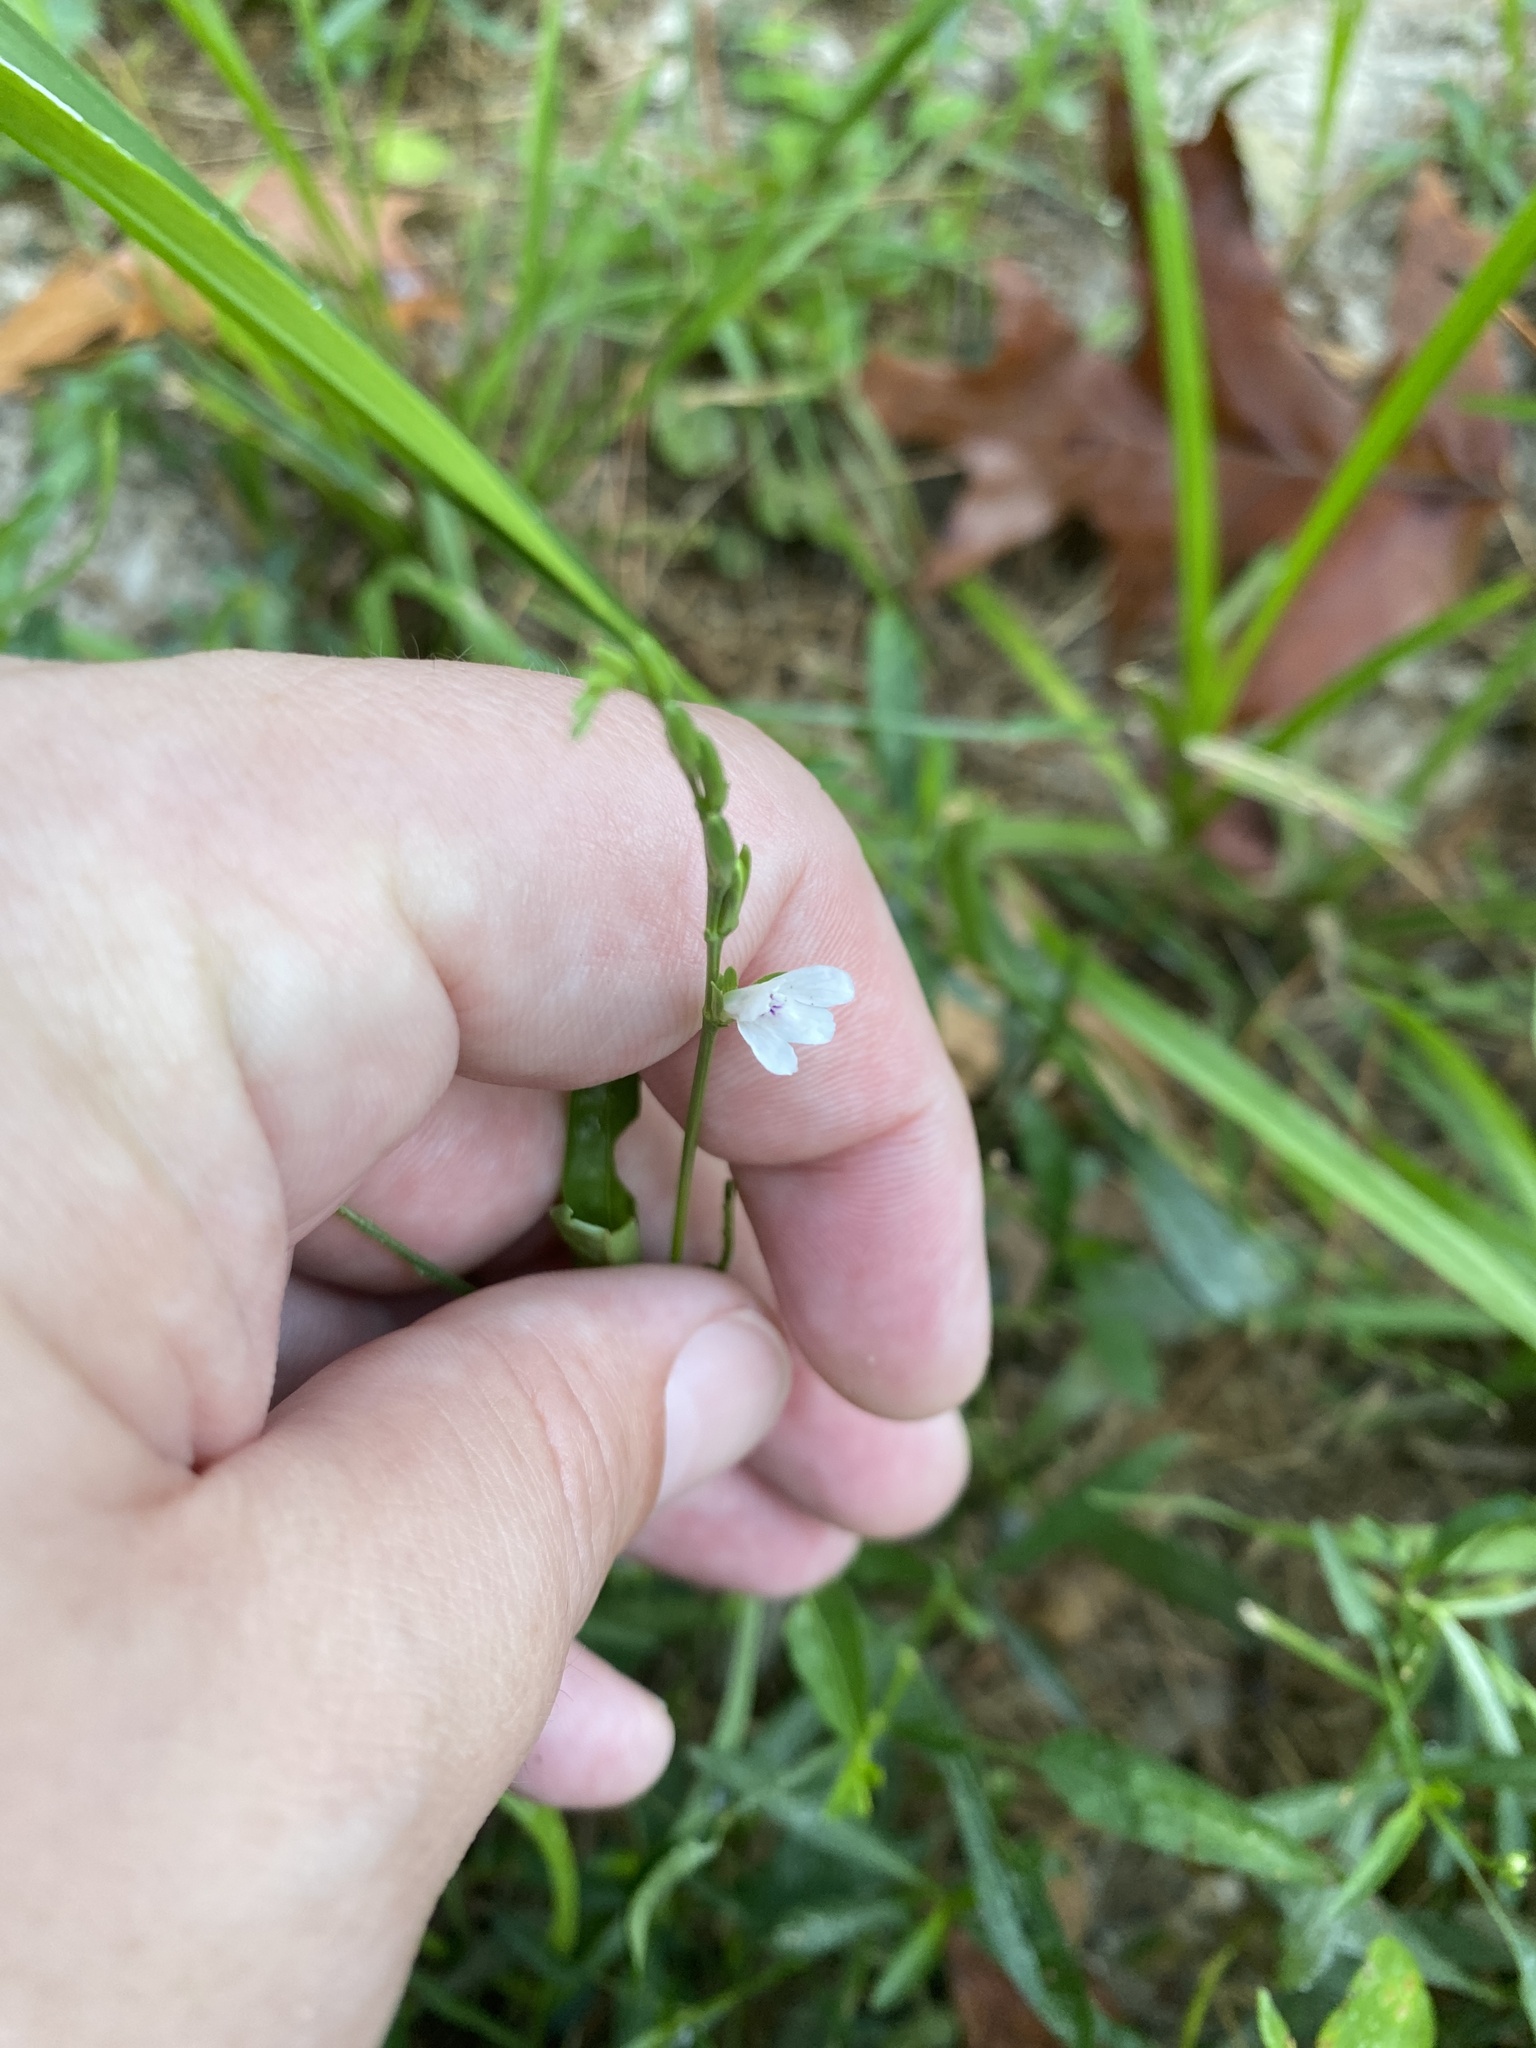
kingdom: Plantae
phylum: Tracheophyta
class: Magnoliopsida
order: Lamiales
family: Acanthaceae
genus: Justicia
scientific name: Justicia lanceolata
